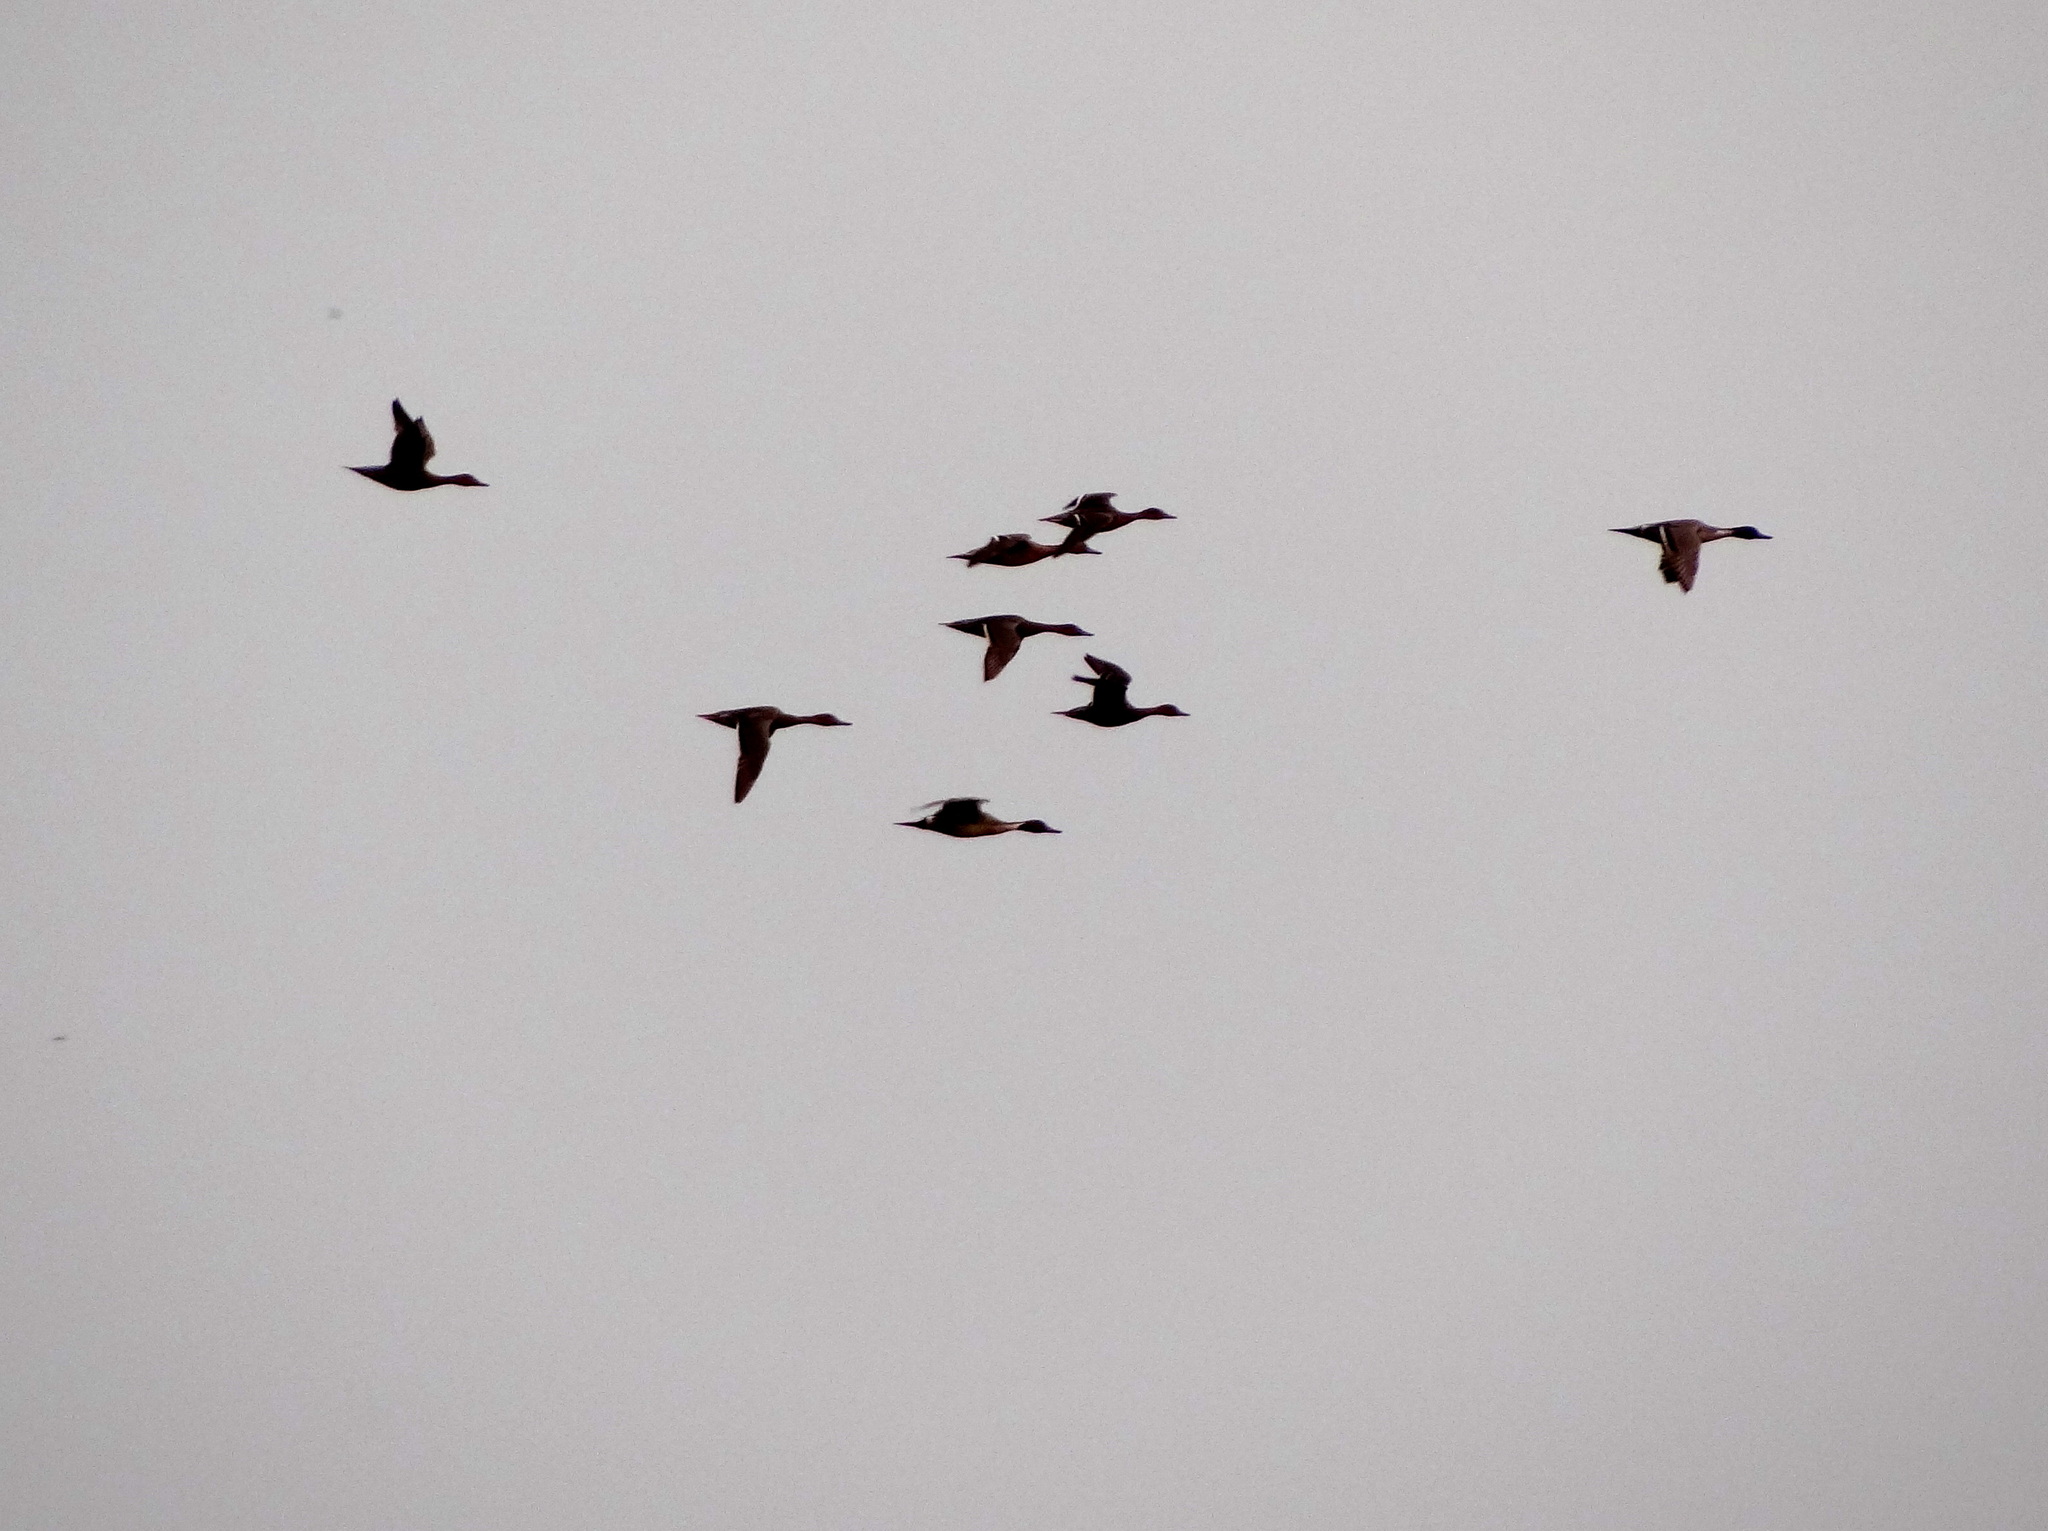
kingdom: Animalia
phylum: Chordata
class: Aves
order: Anseriformes
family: Anatidae
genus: Anas
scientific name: Anas acuta
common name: Northern pintail
